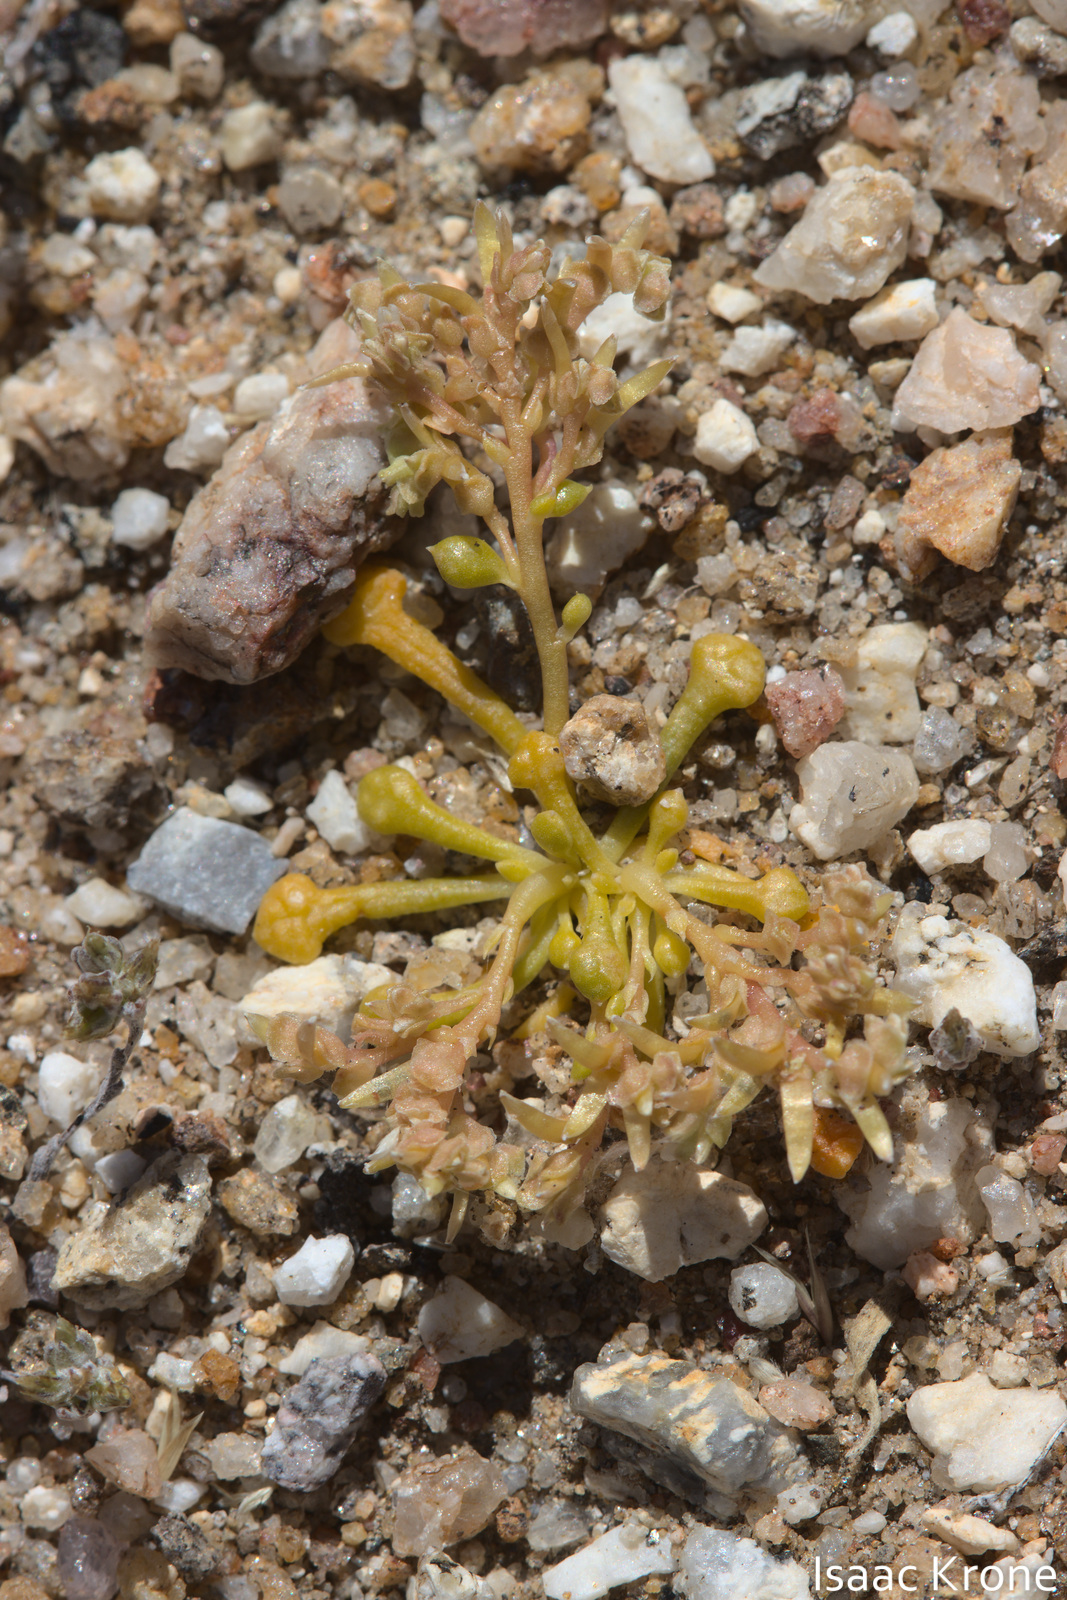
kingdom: Plantae
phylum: Tracheophyta
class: Magnoliopsida
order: Caryophyllales
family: Montiaceae
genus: Calyptridium
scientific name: Calyptridium monandrum
